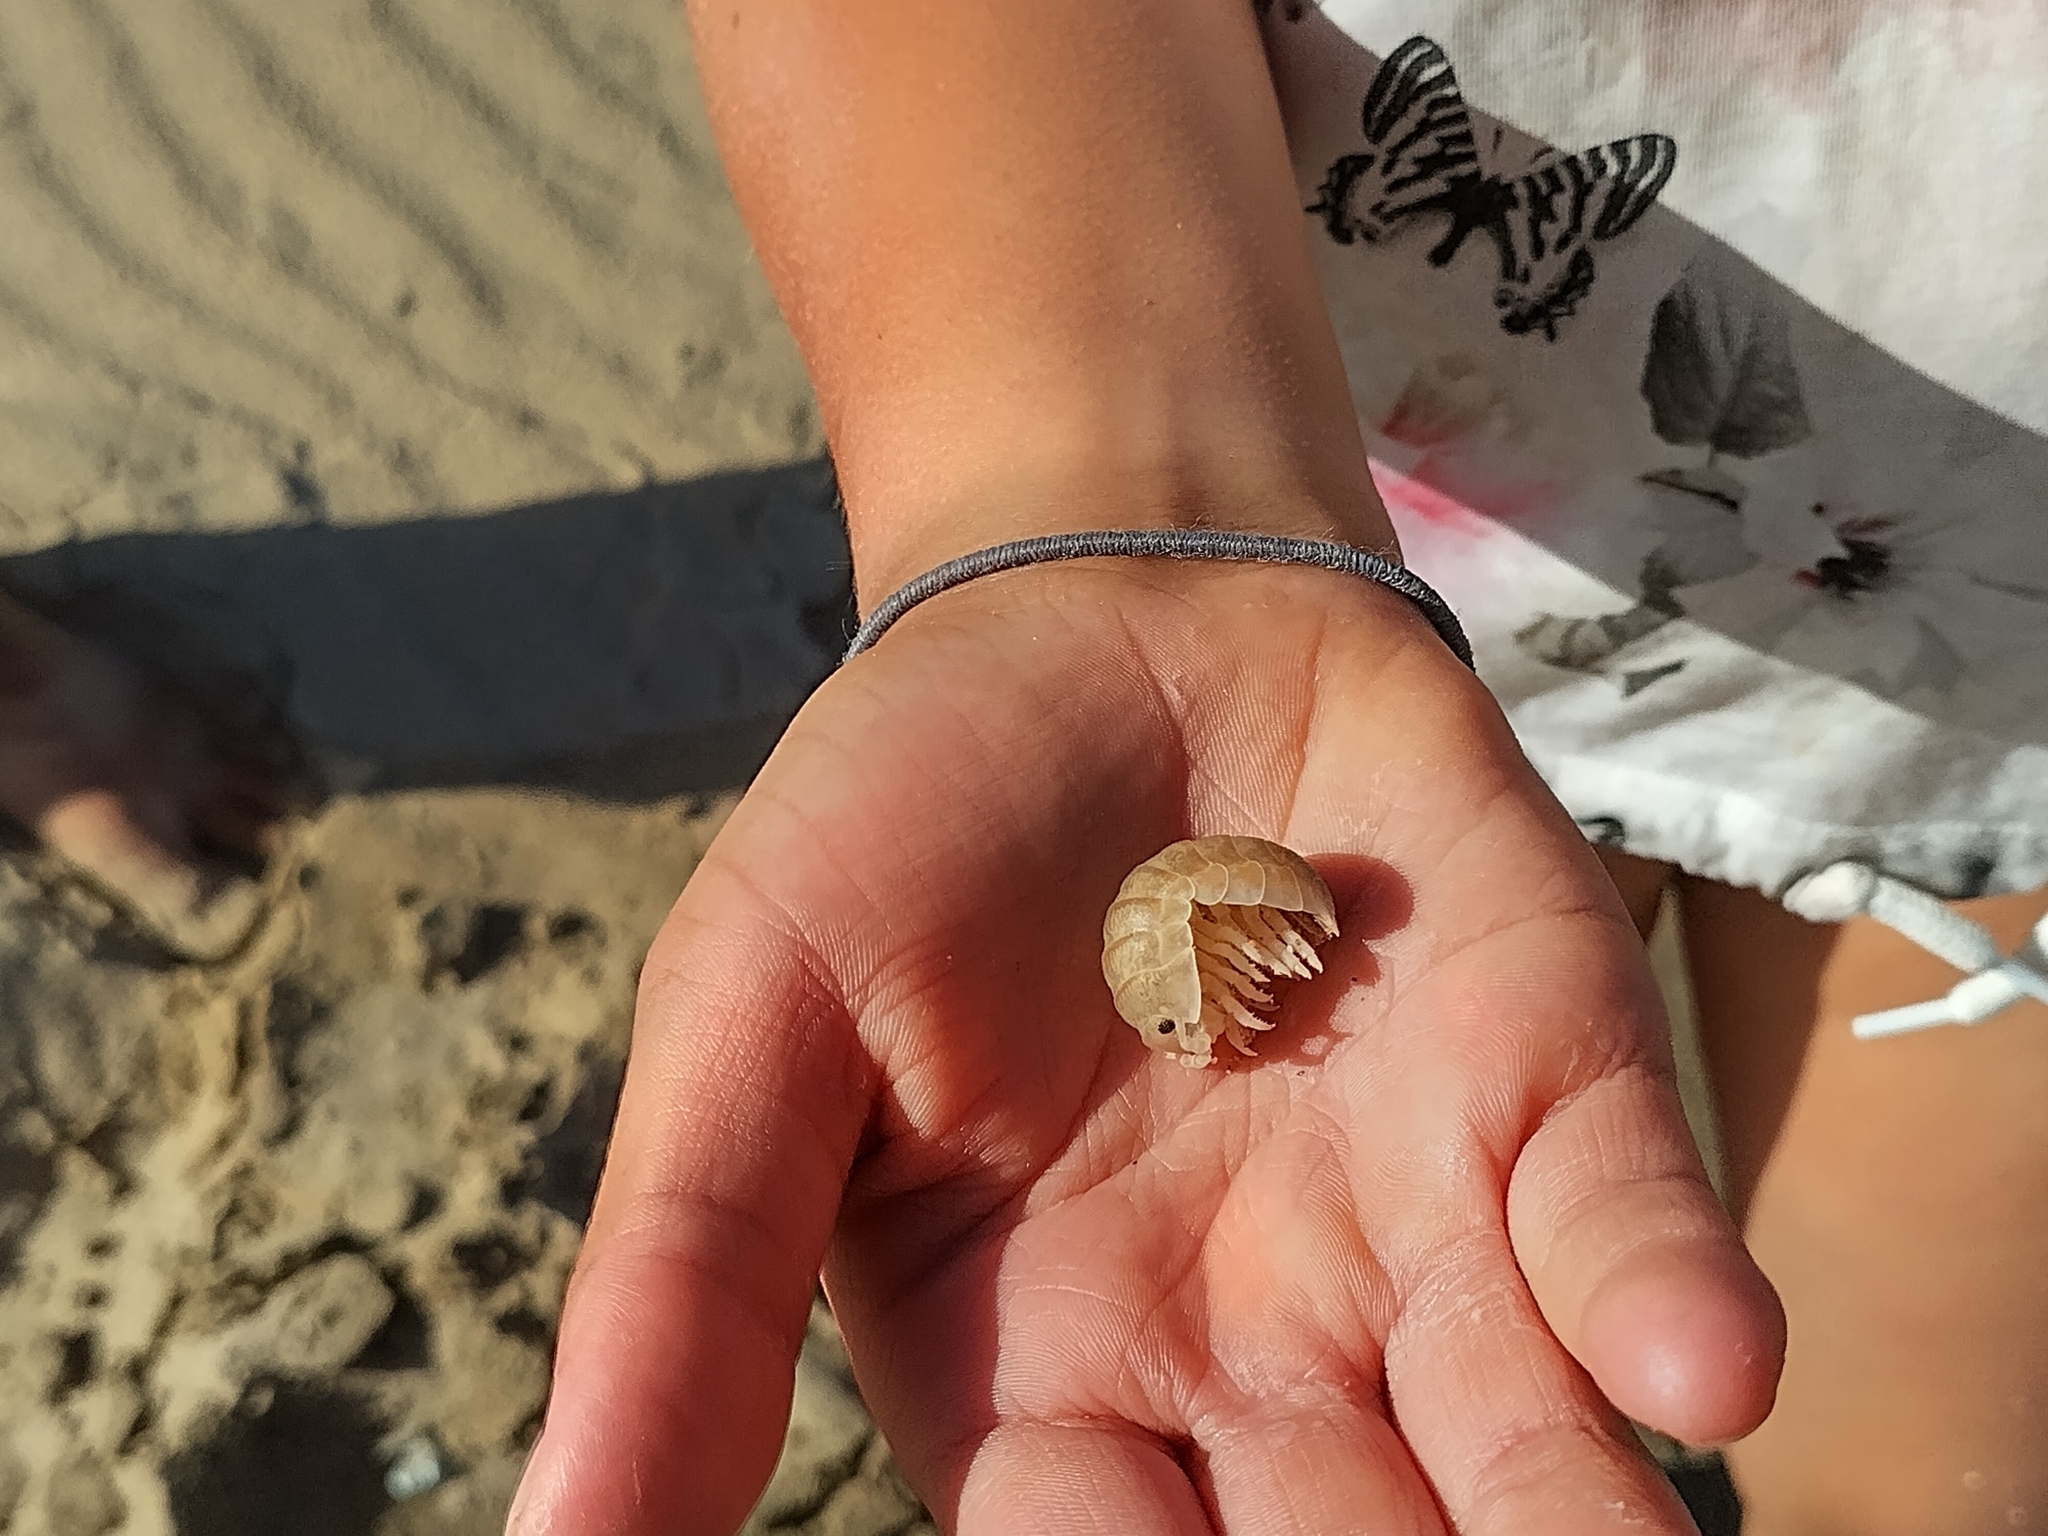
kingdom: Animalia
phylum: Arthropoda
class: Malacostraca
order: Isopoda
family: Tylidae
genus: Tylos
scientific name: Tylos capensis
